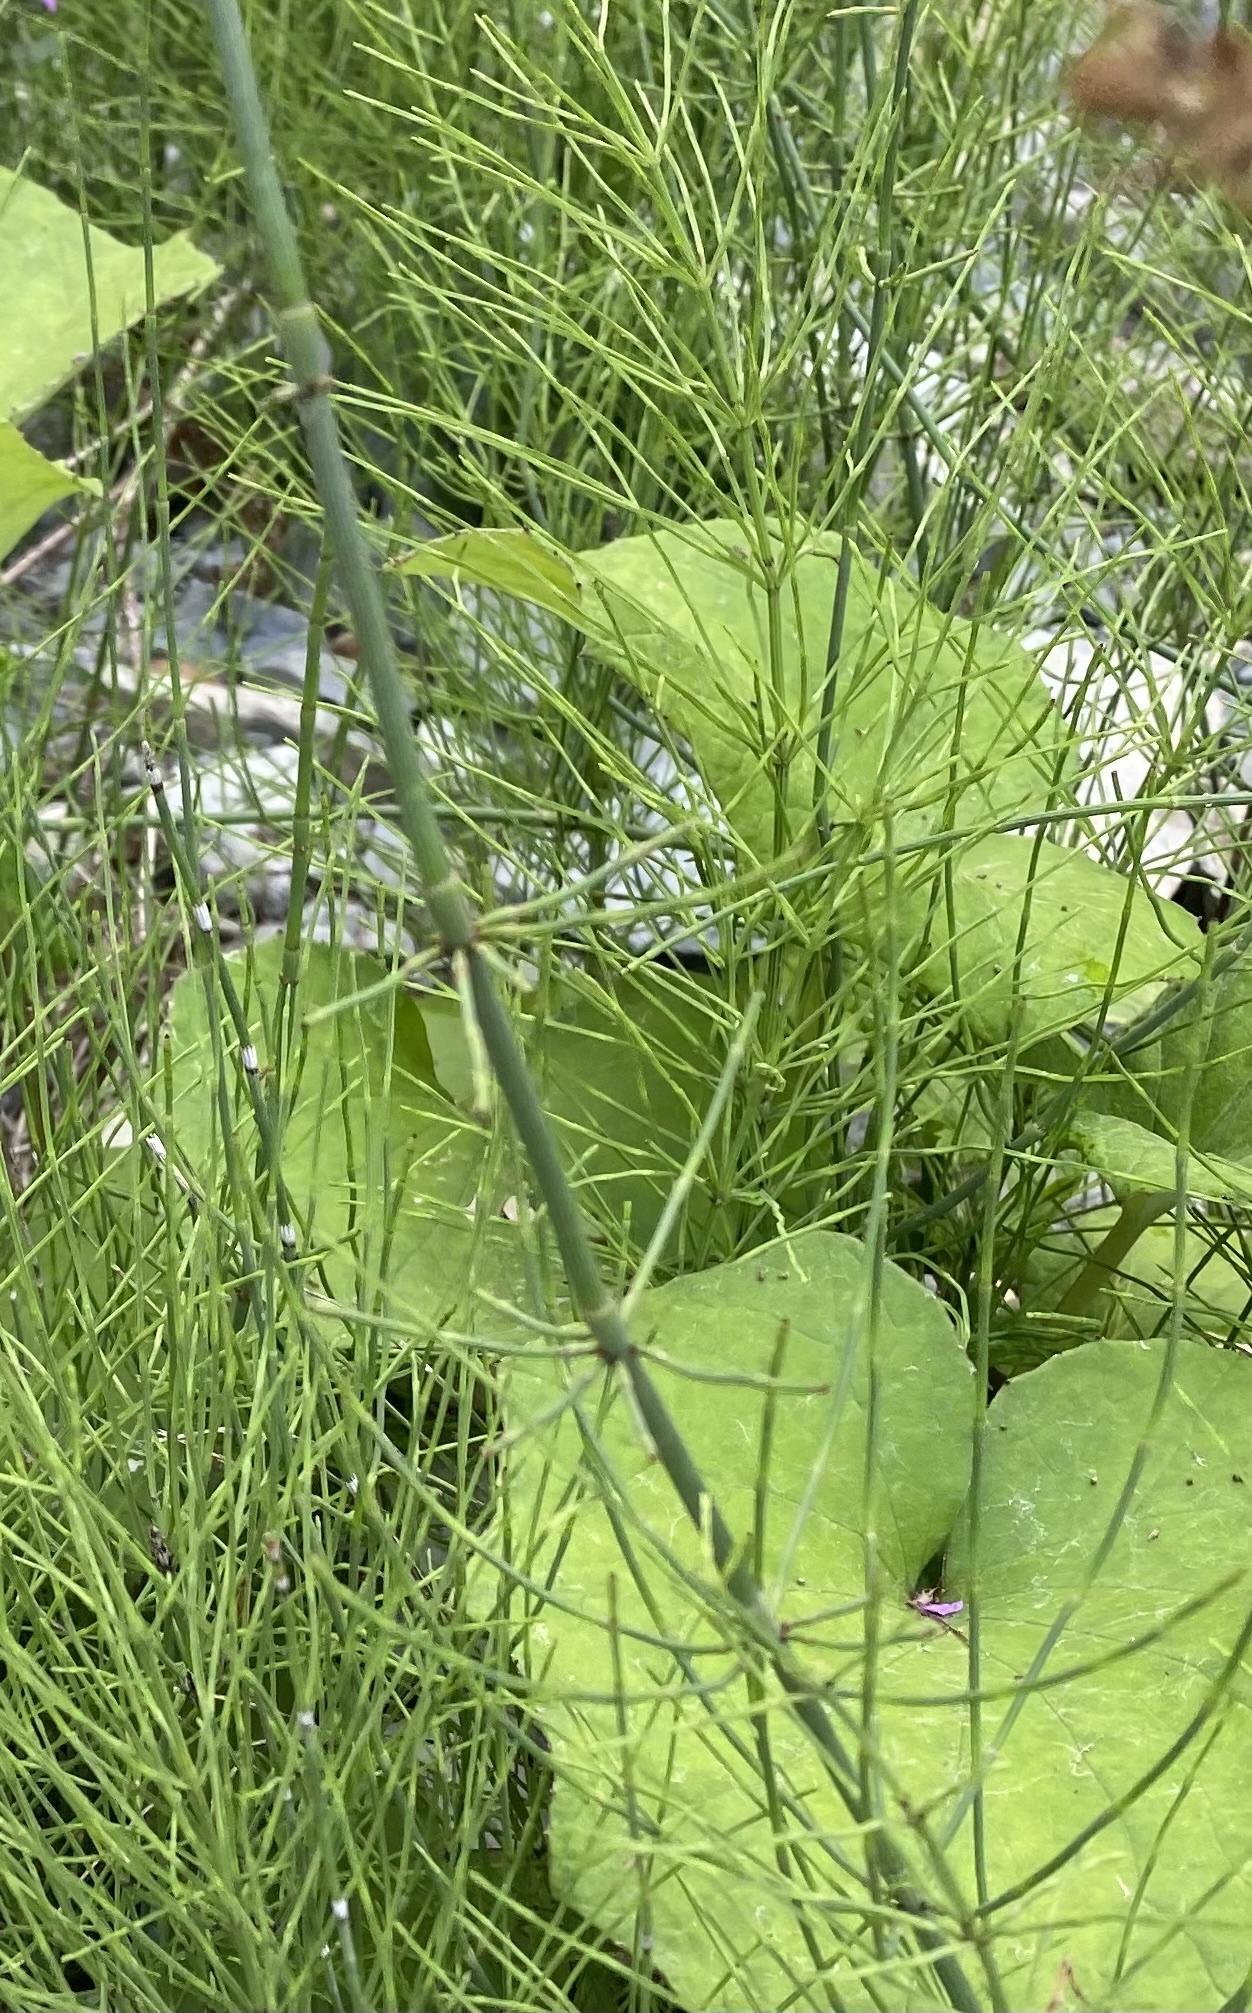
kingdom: Plantae
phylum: Tracheophyta
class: Polypodiopsida
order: Equisetales
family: Equisetaceae
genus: Equisetum
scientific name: Equisetum ramosissimum
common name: Branched horsetail
